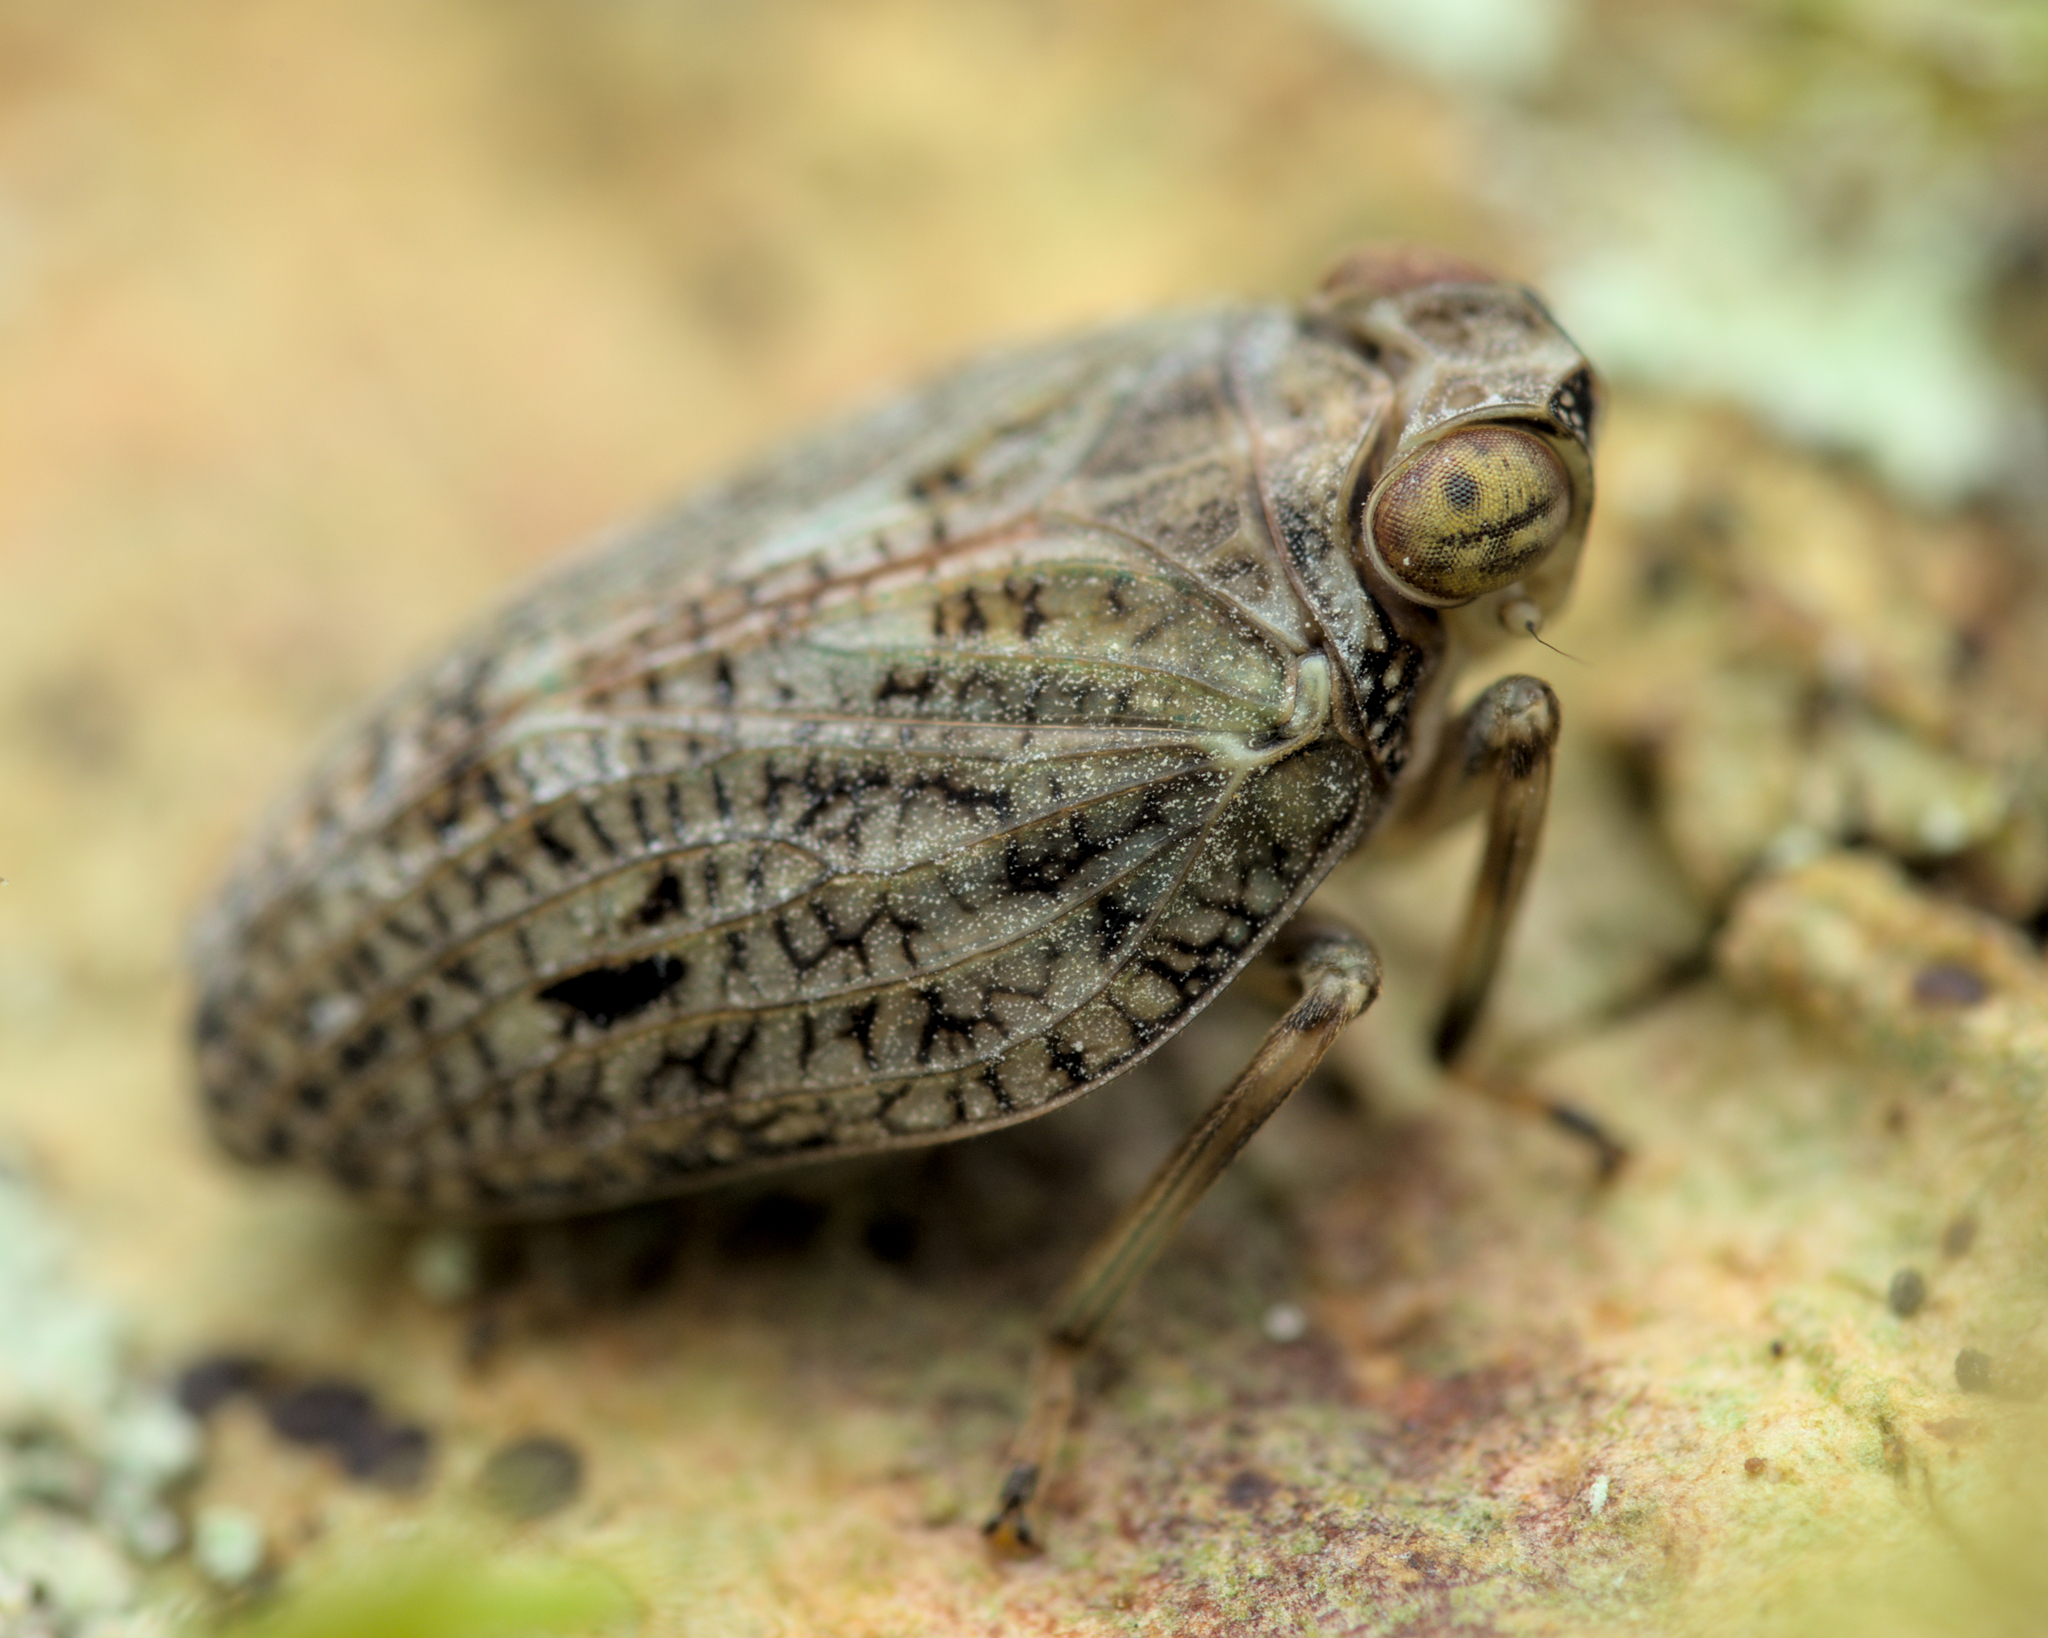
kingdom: Animalia
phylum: Arthropoda
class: Insecta
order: Hemiptera
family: Issidae
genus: Issus
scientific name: Issus coleoptratus
